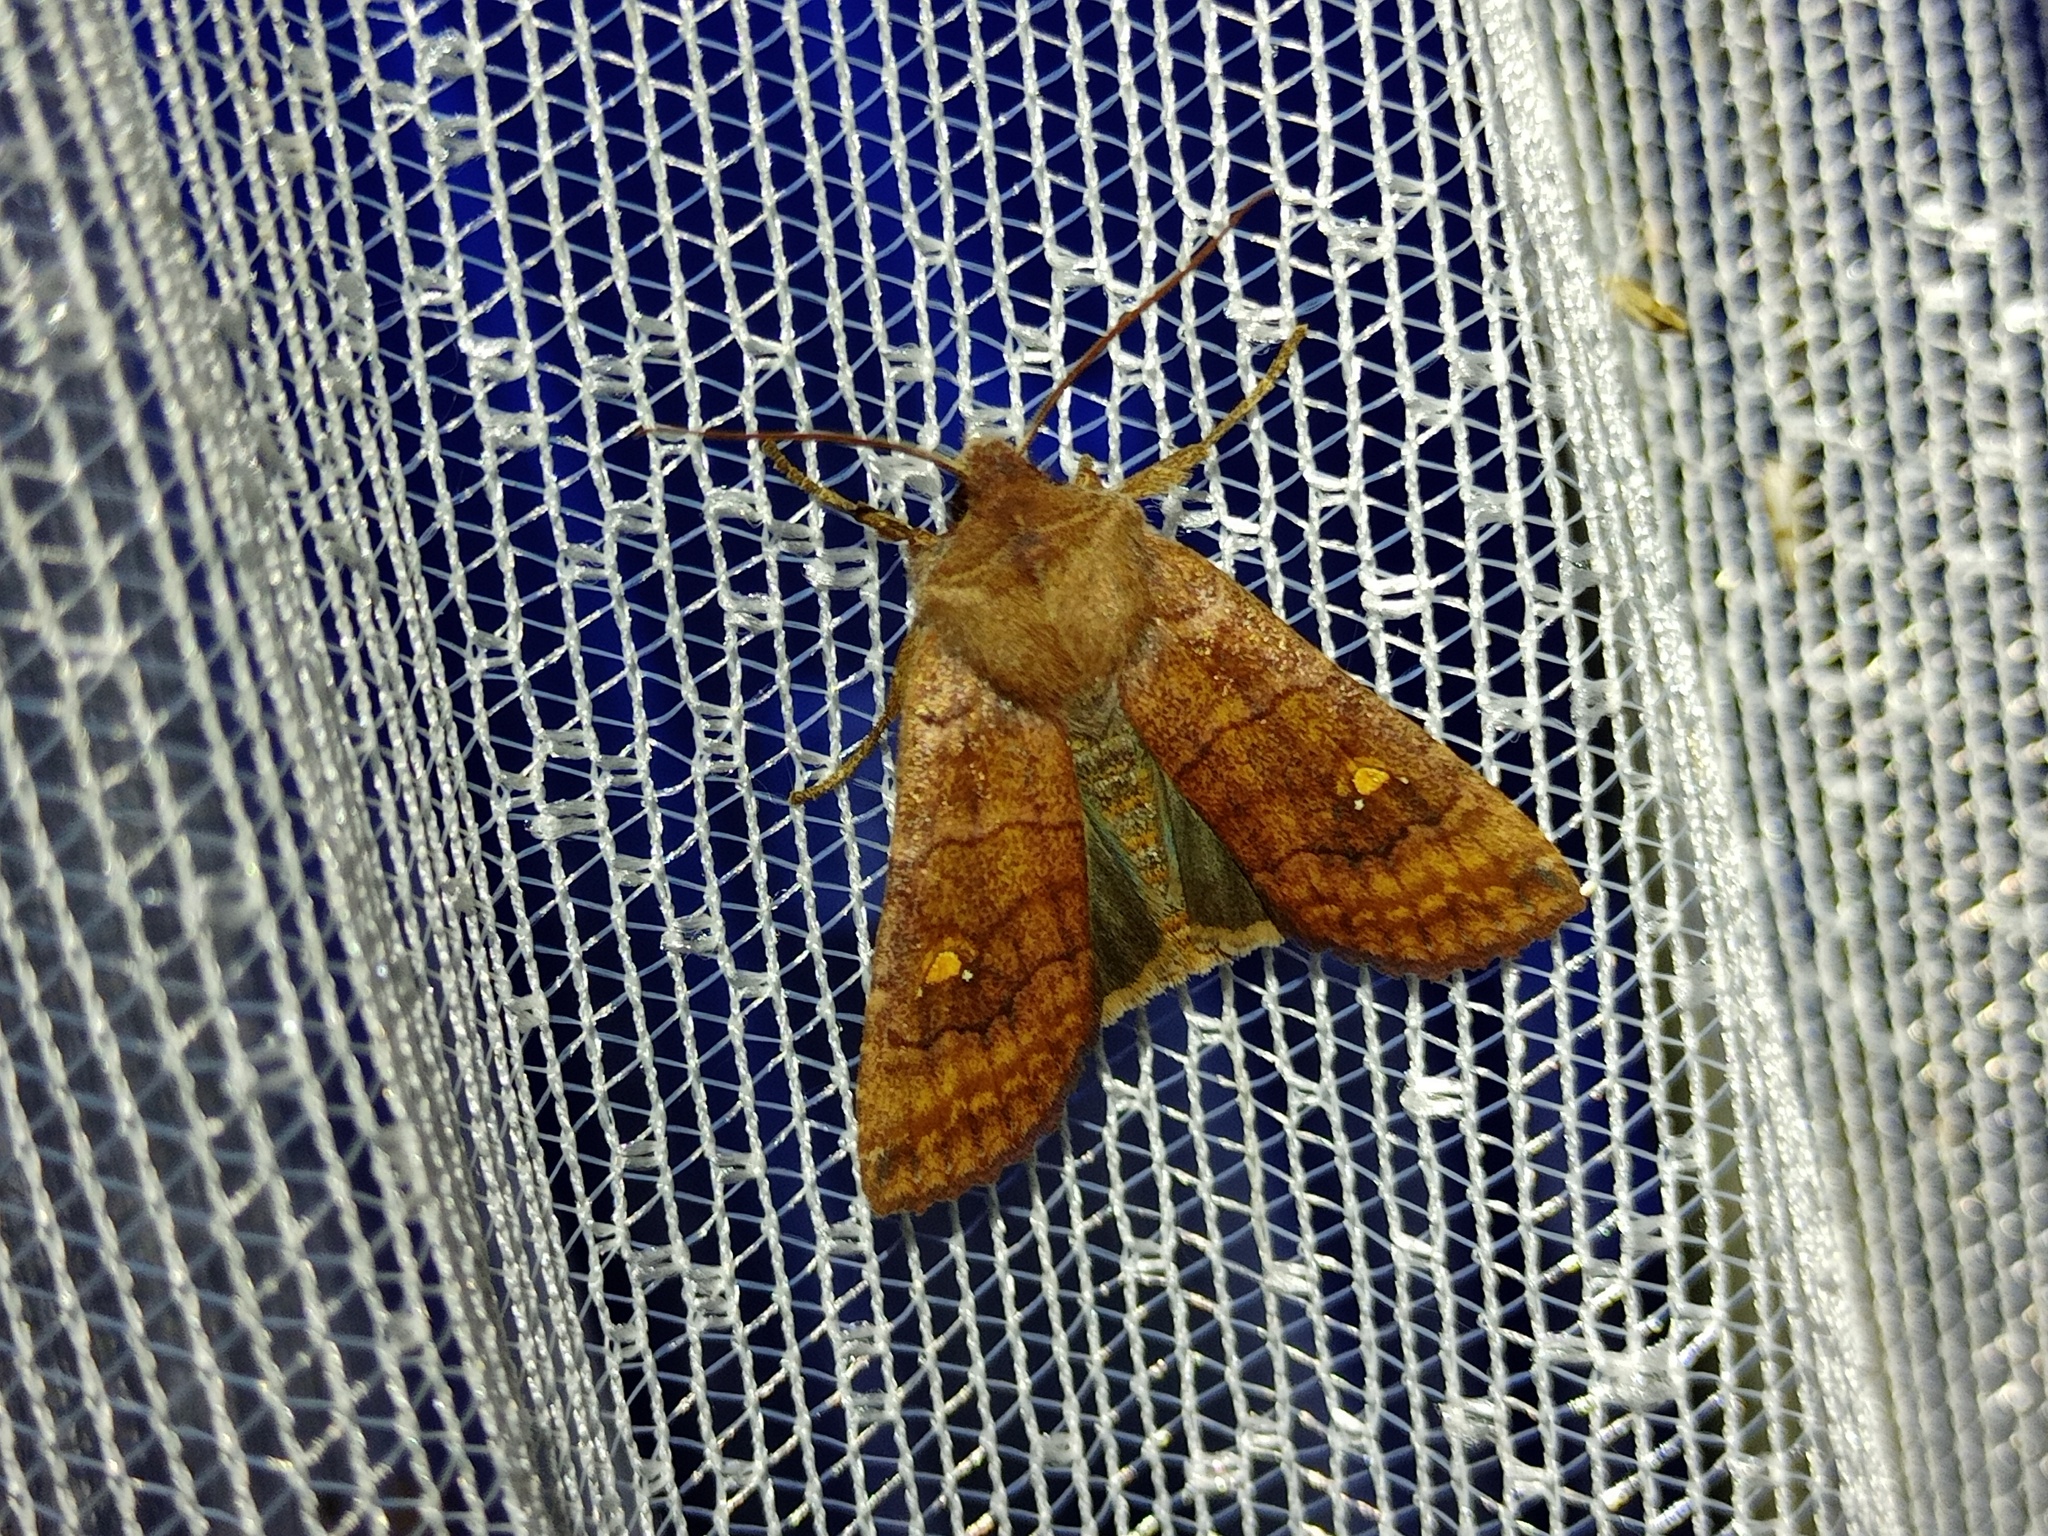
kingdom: Animalia
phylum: Arthropoda
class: Insecta
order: Lepidoptera
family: Noctuidae
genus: Eupsilia
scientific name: Eupsilia transversa
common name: Satellite
